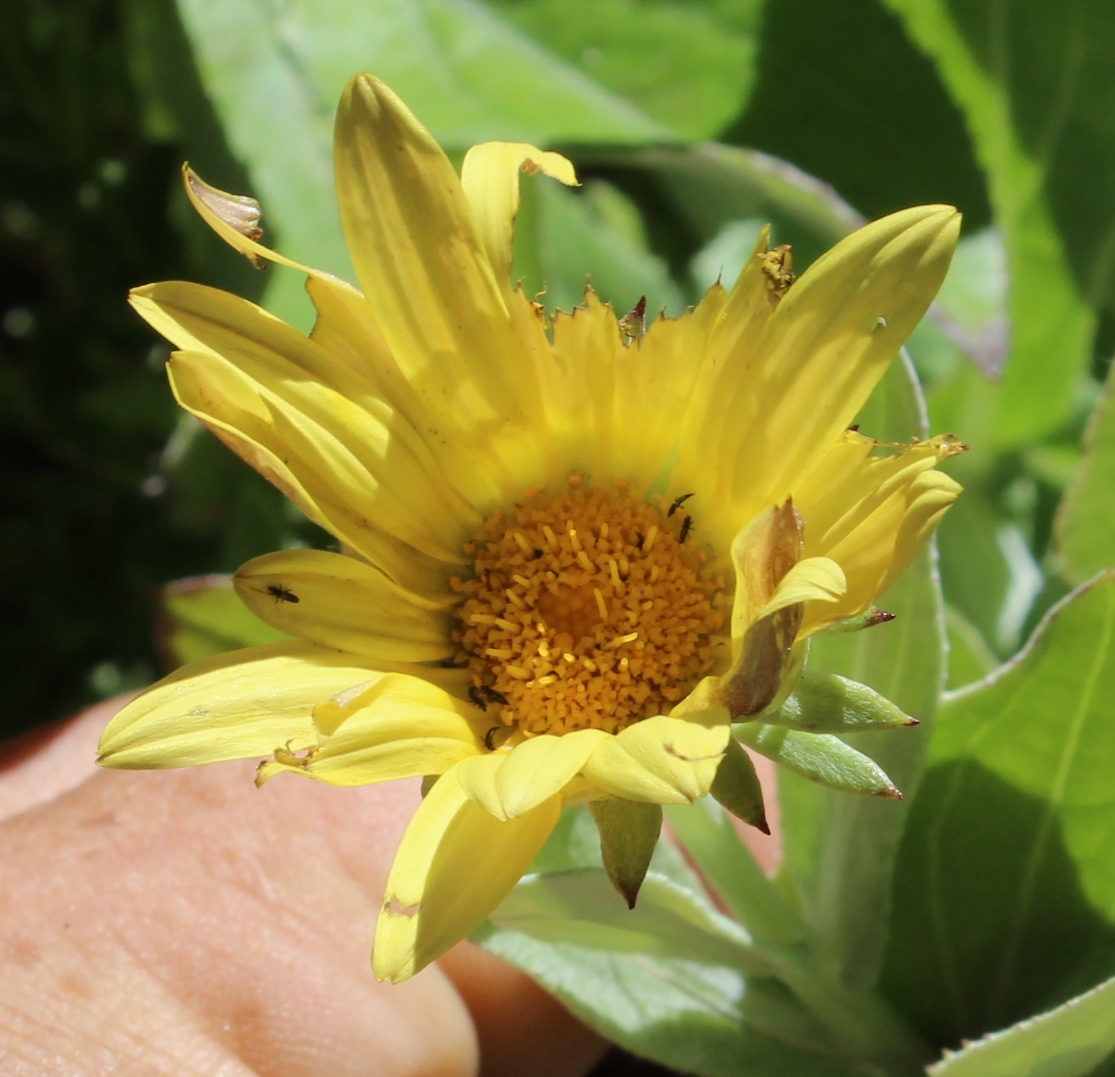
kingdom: Plantae
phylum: Tracheophyta
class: Magnoliopsida
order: Asterales
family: Asteraceae
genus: Arctotis
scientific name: Arctotis scabra
